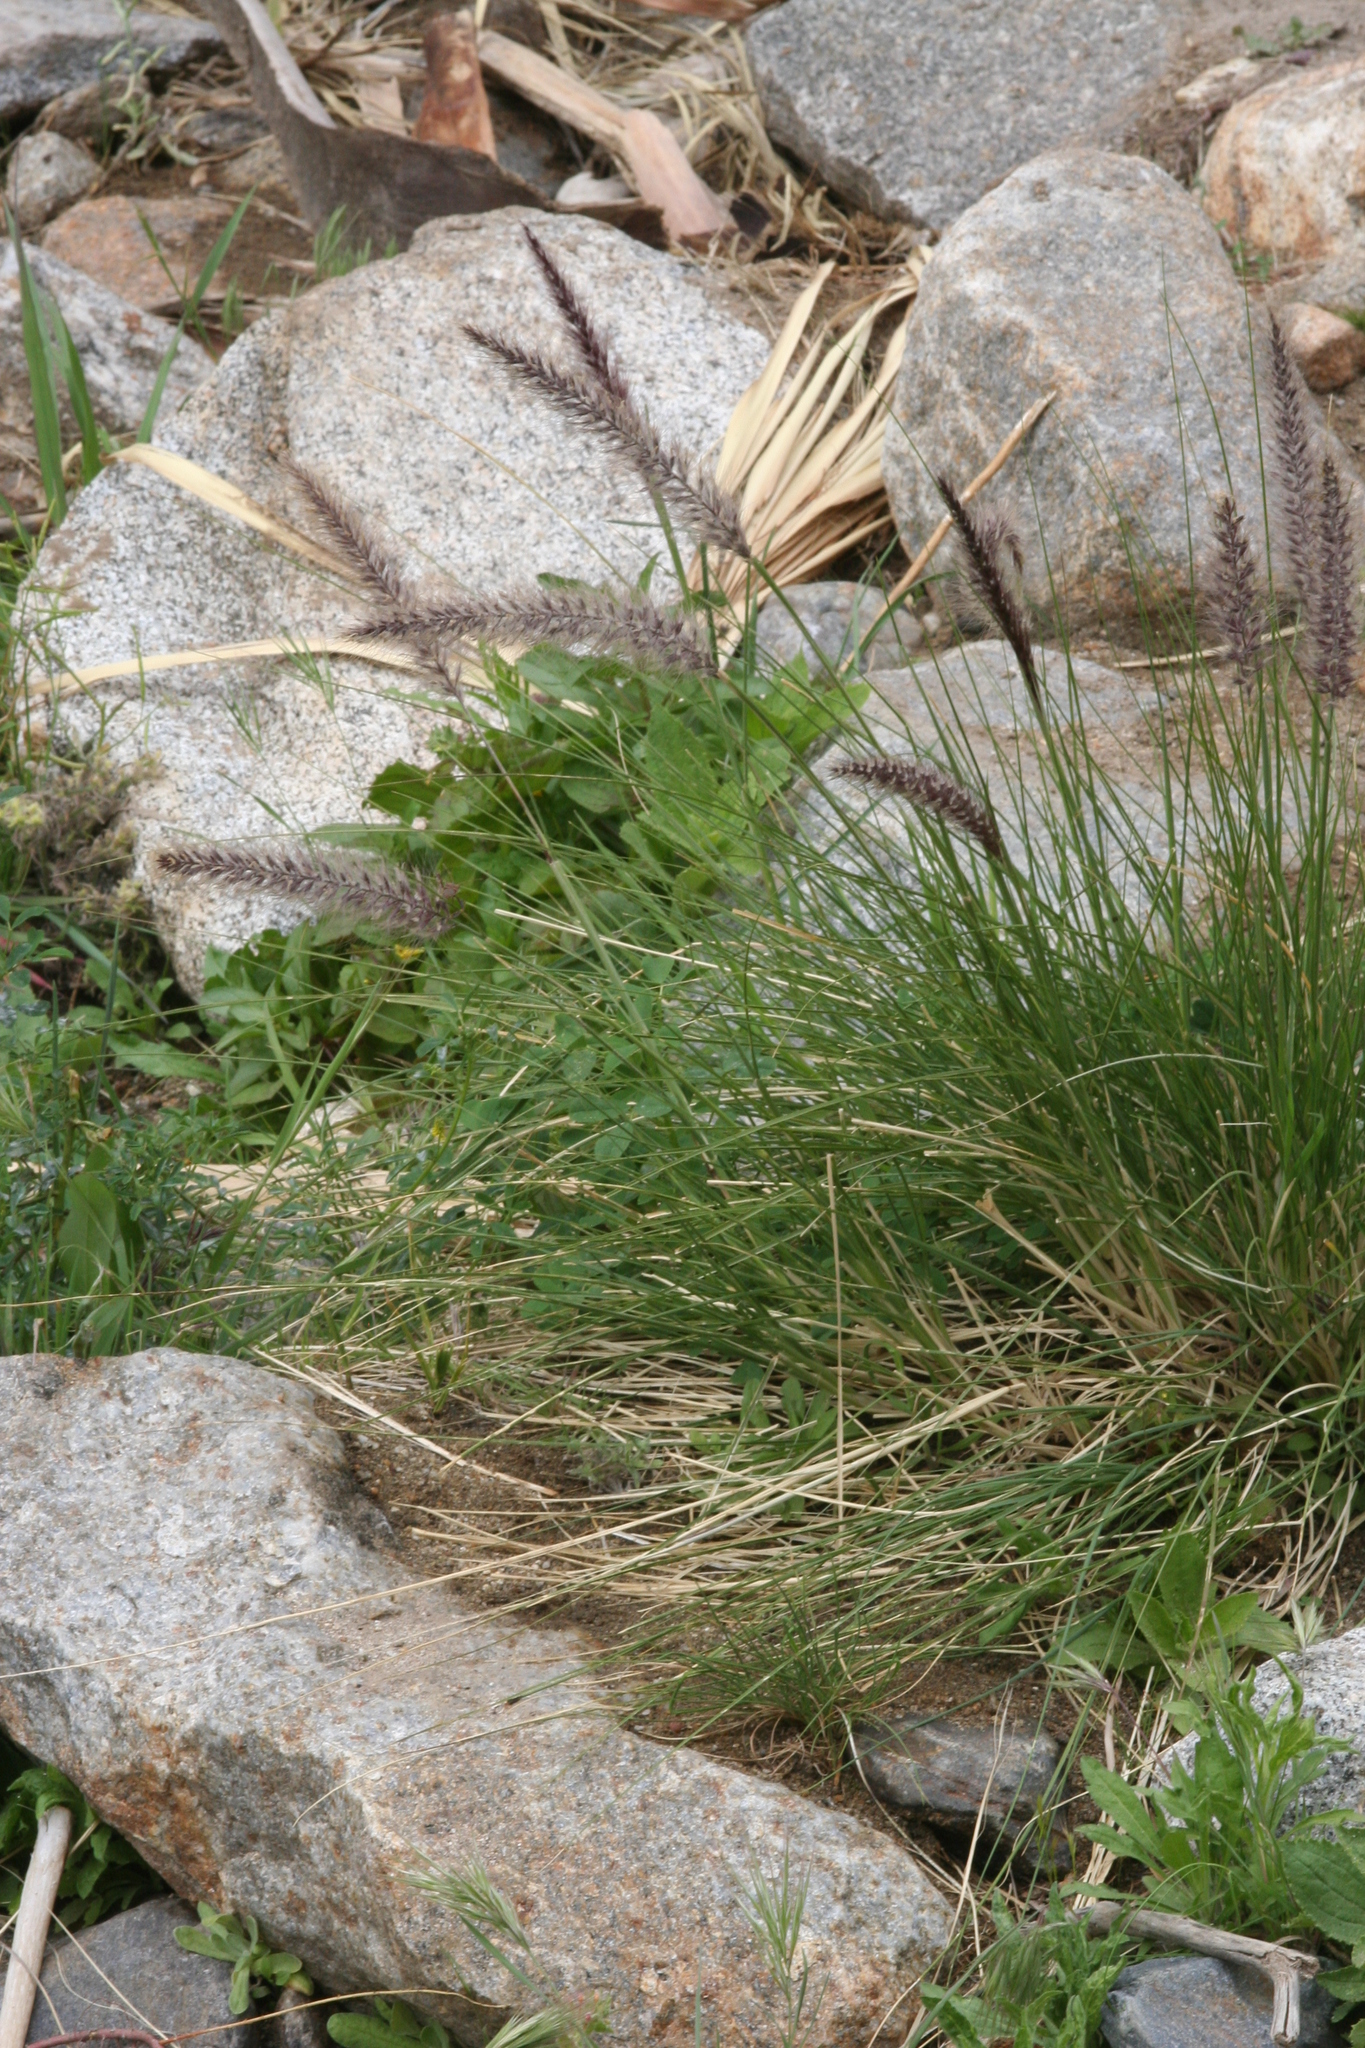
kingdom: Plantae
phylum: Tracheophyta
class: Liliopsida
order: Poales
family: Poaceae
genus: Cenchrus
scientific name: Cenchrus setaceus
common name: Crimson fountaingrass
